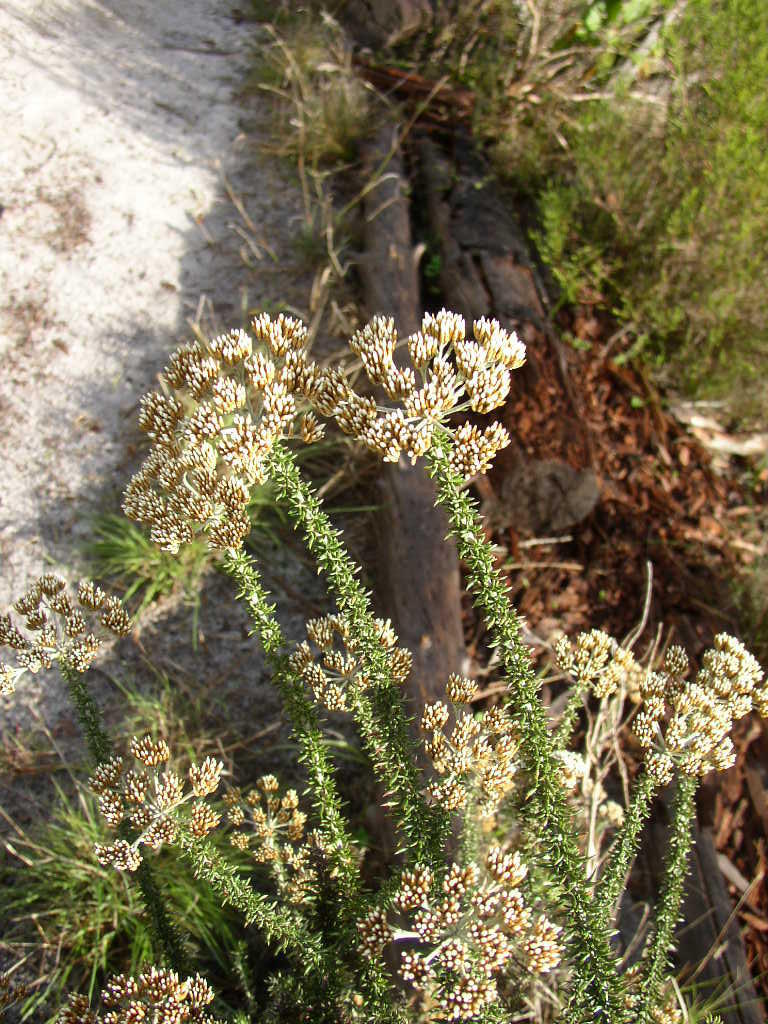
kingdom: Plantae
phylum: Tracheophyta
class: Magnoliopsida
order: Asterales
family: Asteraceae
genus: Metalasia
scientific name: Metalasia densa
